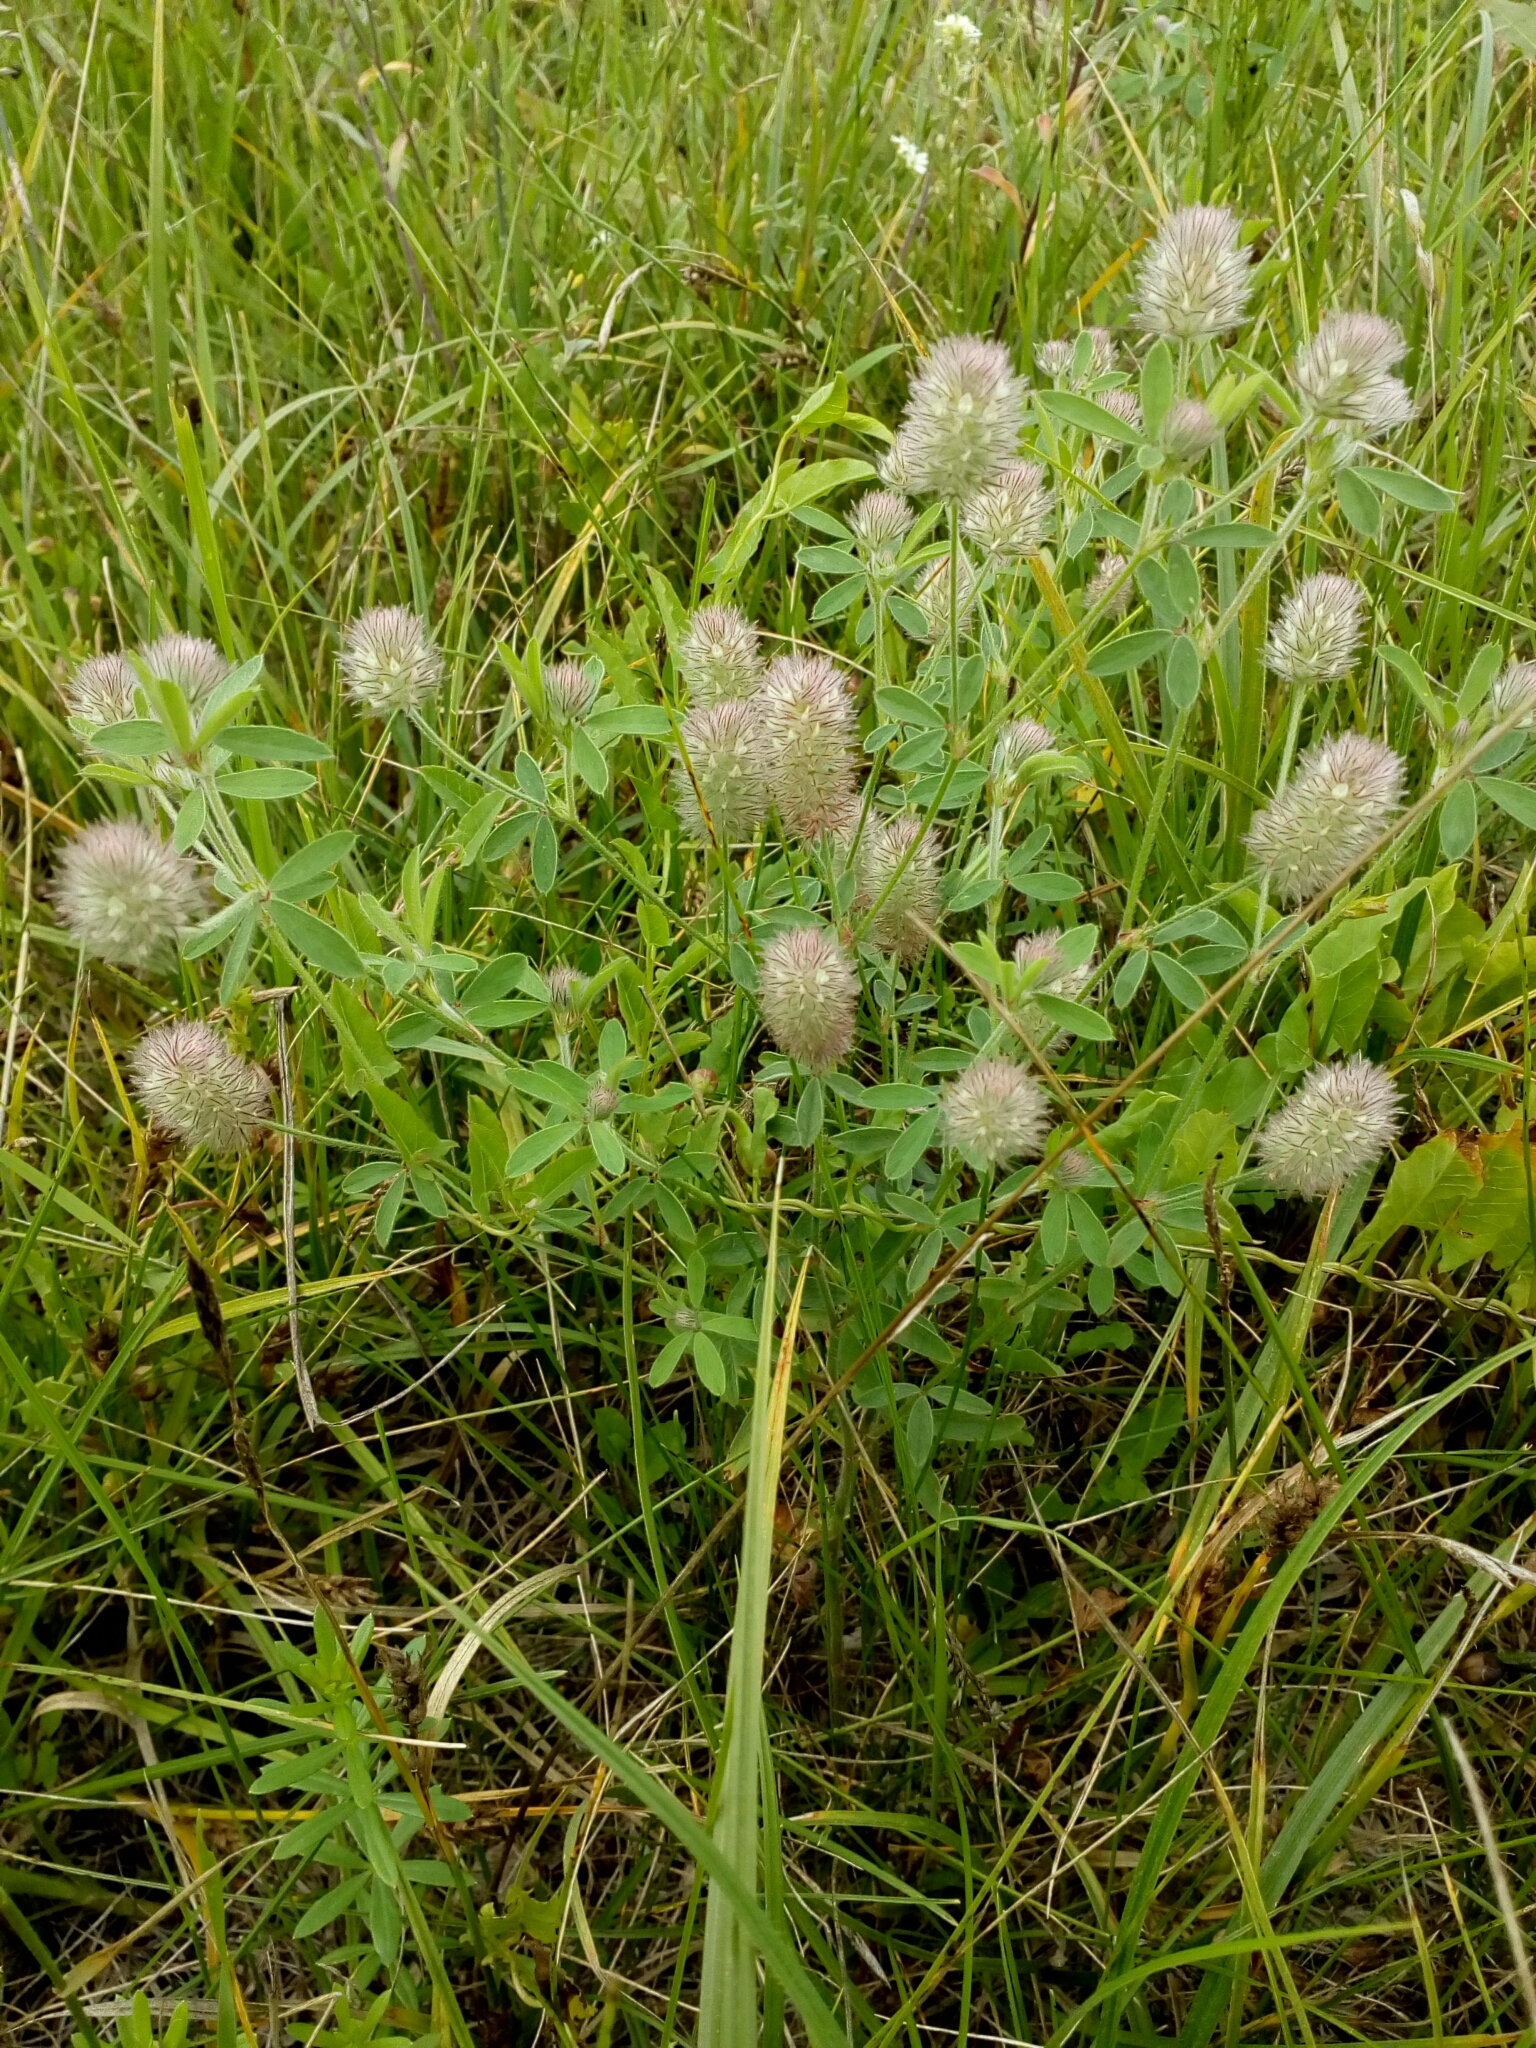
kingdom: Plantae
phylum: Tracheophyta
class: Magnoliopsida
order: Fabales
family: Fabaceae
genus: Trifolium
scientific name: Trifolium arvense
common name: Hare's-foot clover
